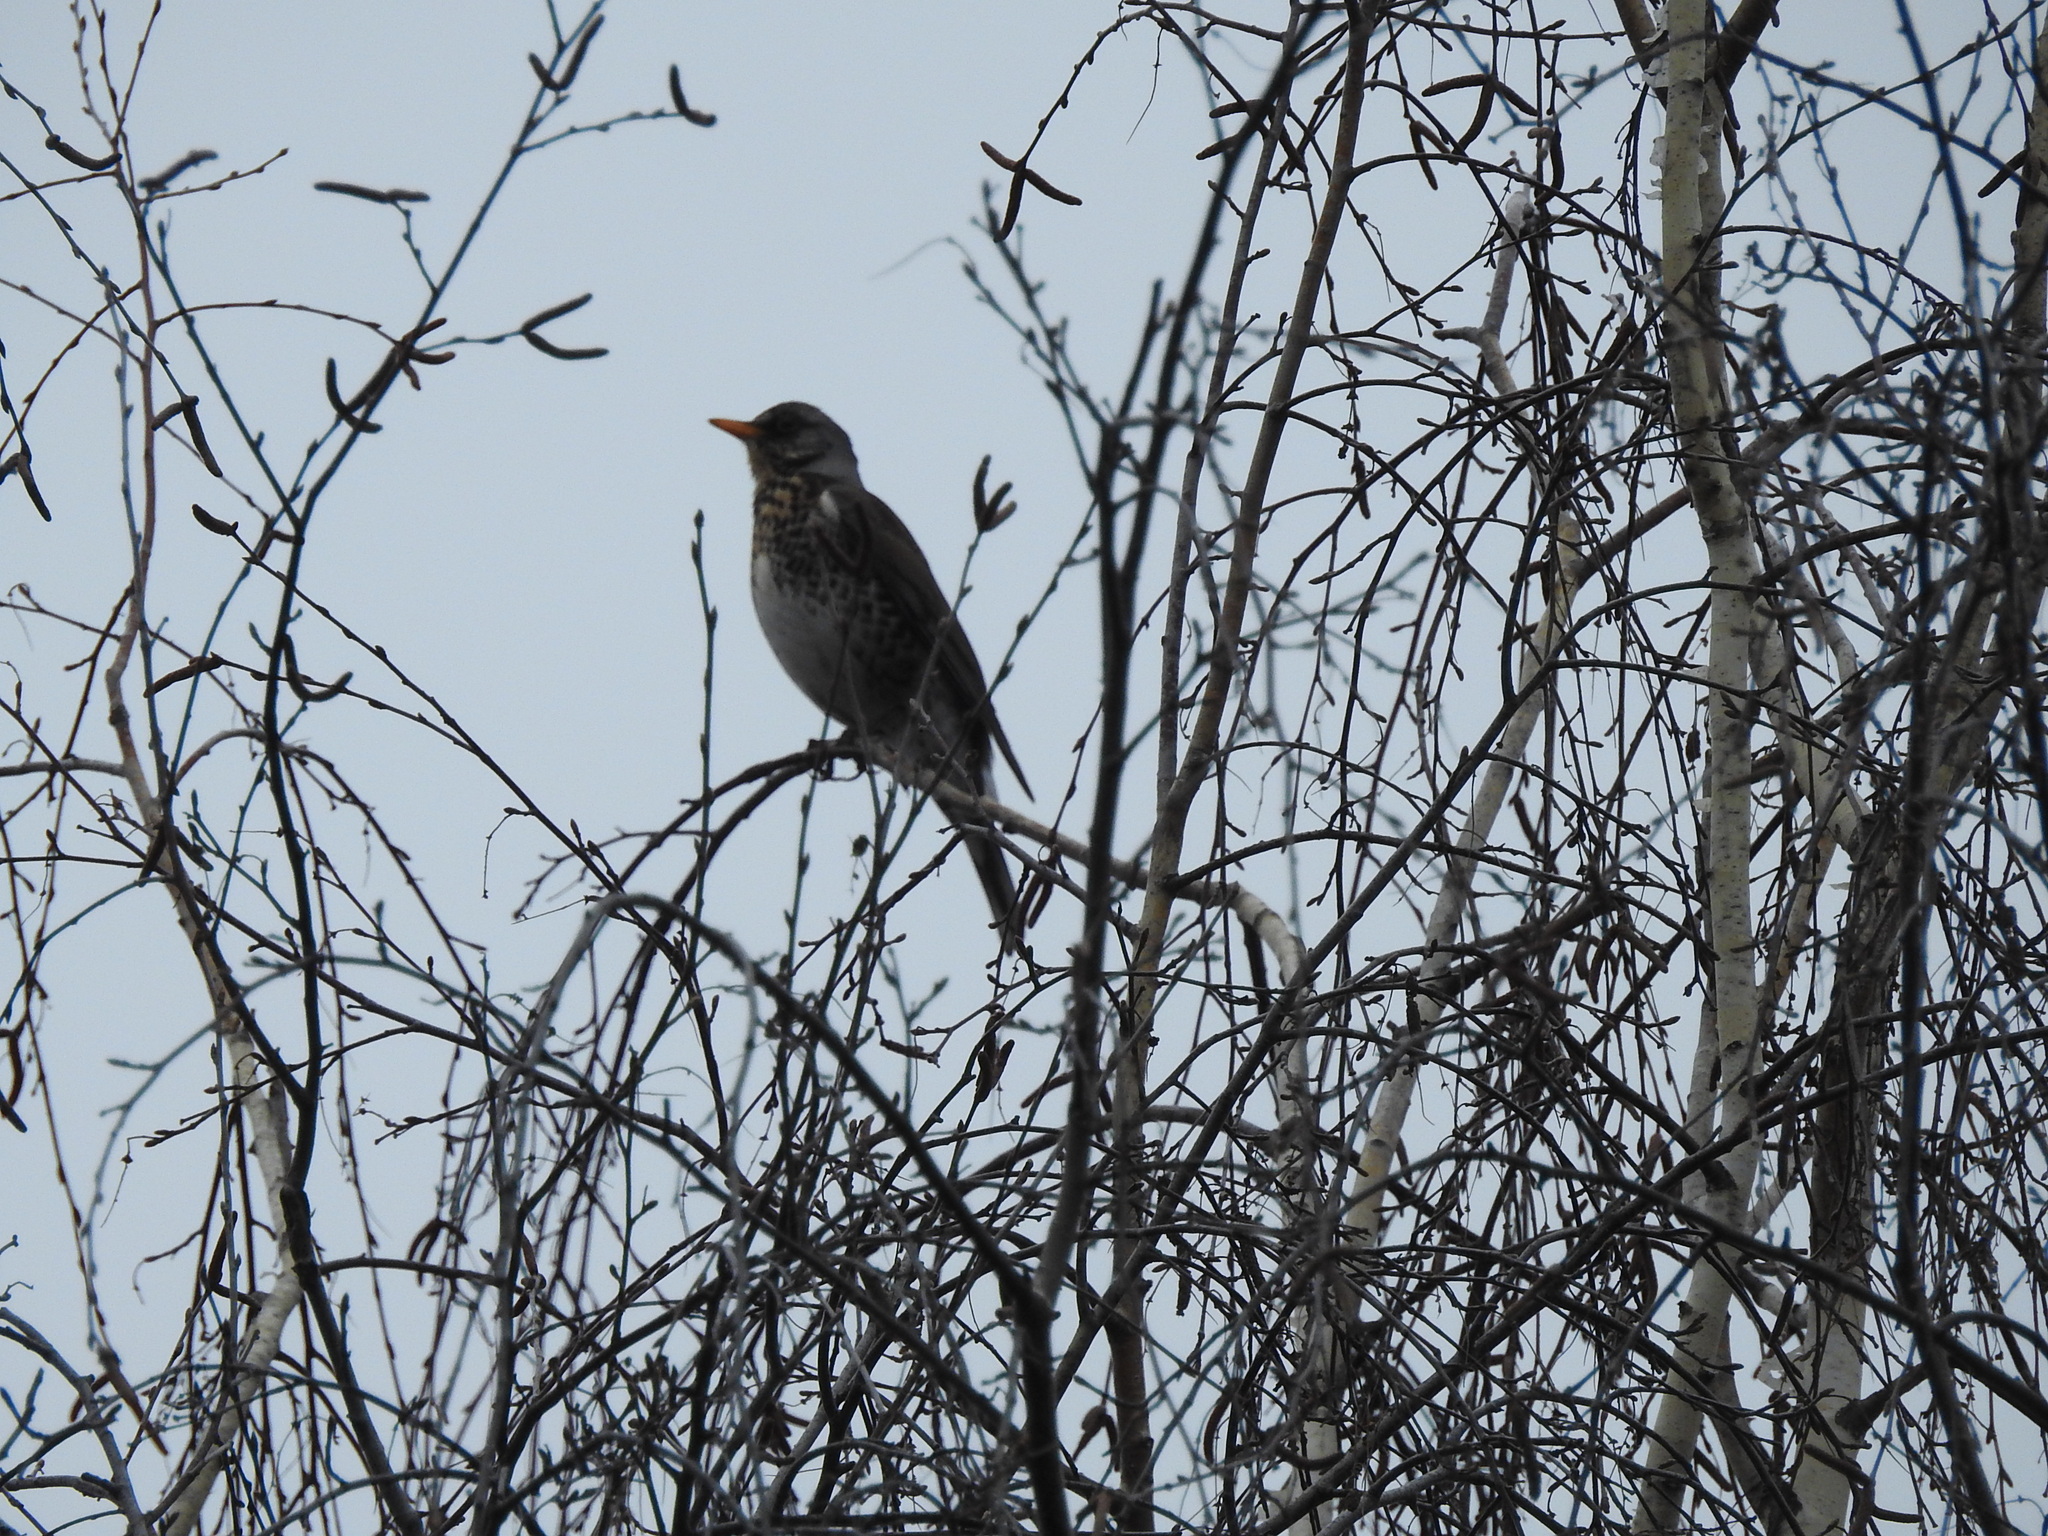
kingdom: Animalia
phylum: Chordata
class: Aves
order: Passeriformes
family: Turdidae
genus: Turdus
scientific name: Turdus pilaris
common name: Fieldfare
